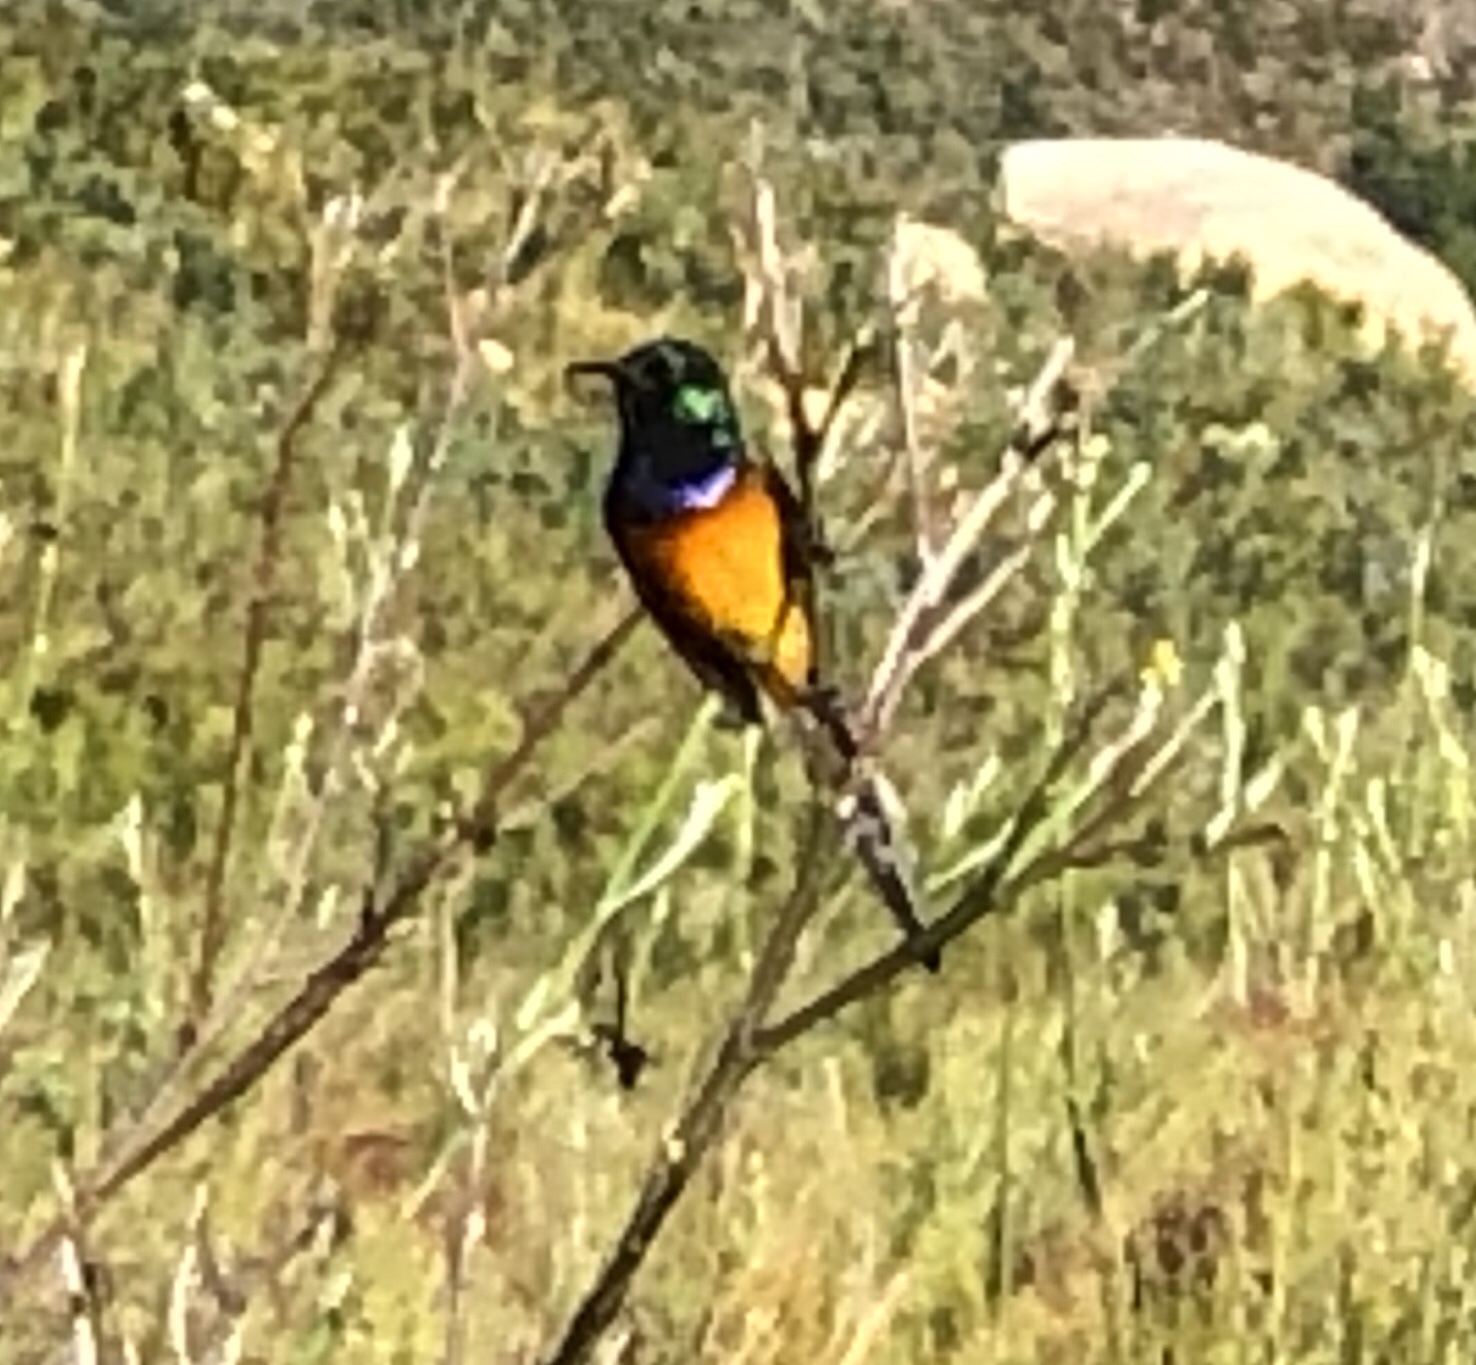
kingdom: Animalia
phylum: Chordata
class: Aves
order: Passeriformes
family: Nectariniidae
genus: Anthobaphes
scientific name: Anthobaphes violacea
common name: Orange-breasted sunbird
